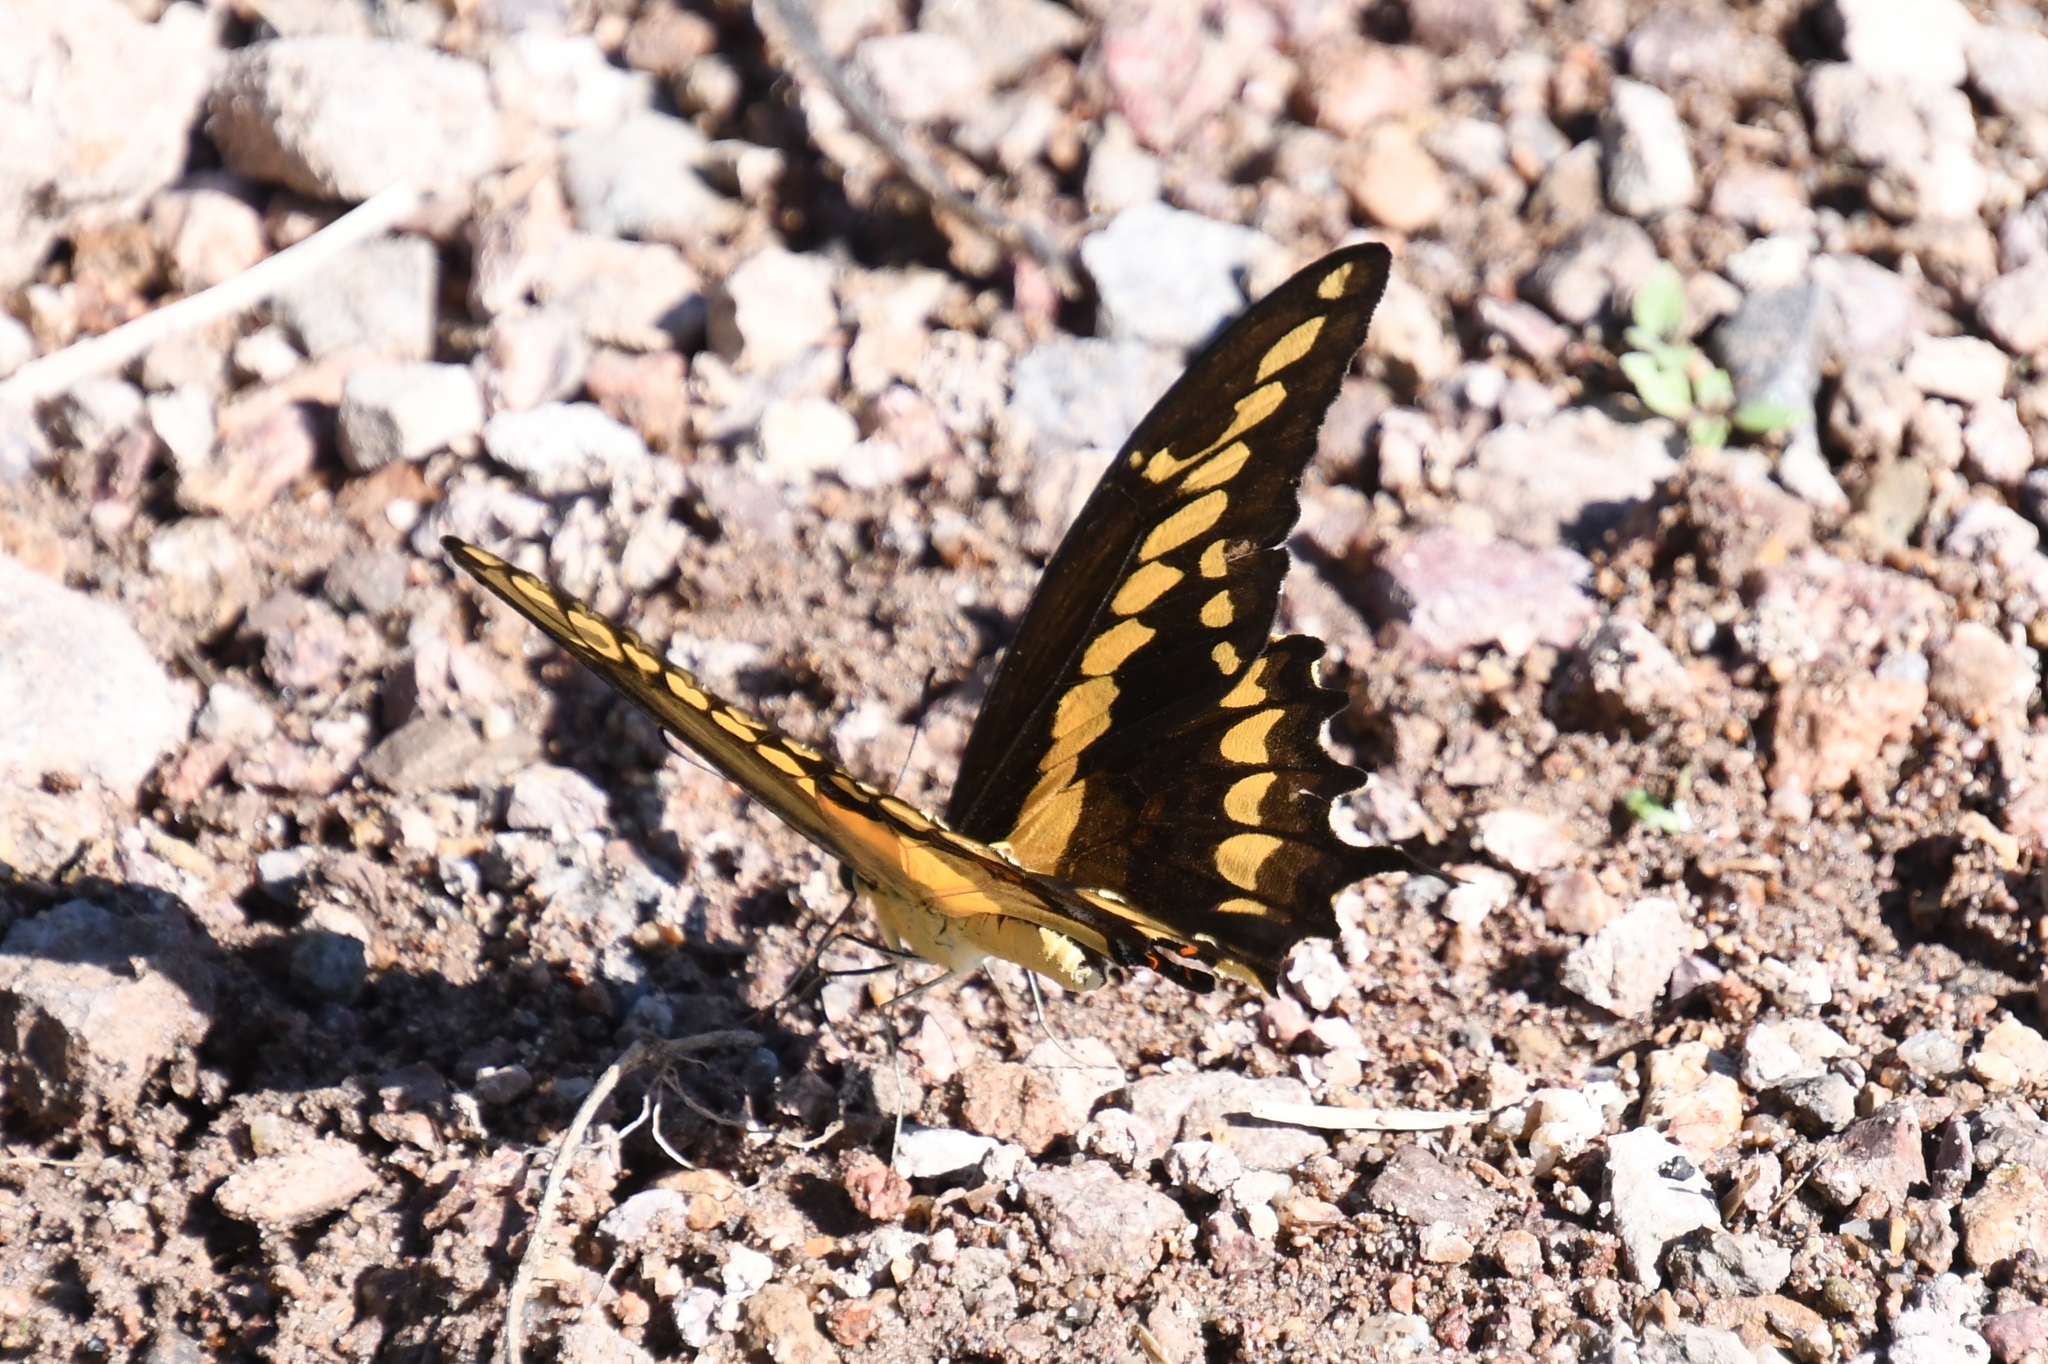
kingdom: Animalia
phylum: Arthropoda
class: Insecta
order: Lepidoptera
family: Papilionidae
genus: Papilio
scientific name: Papilio rumiko
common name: Western giant swallowtail
